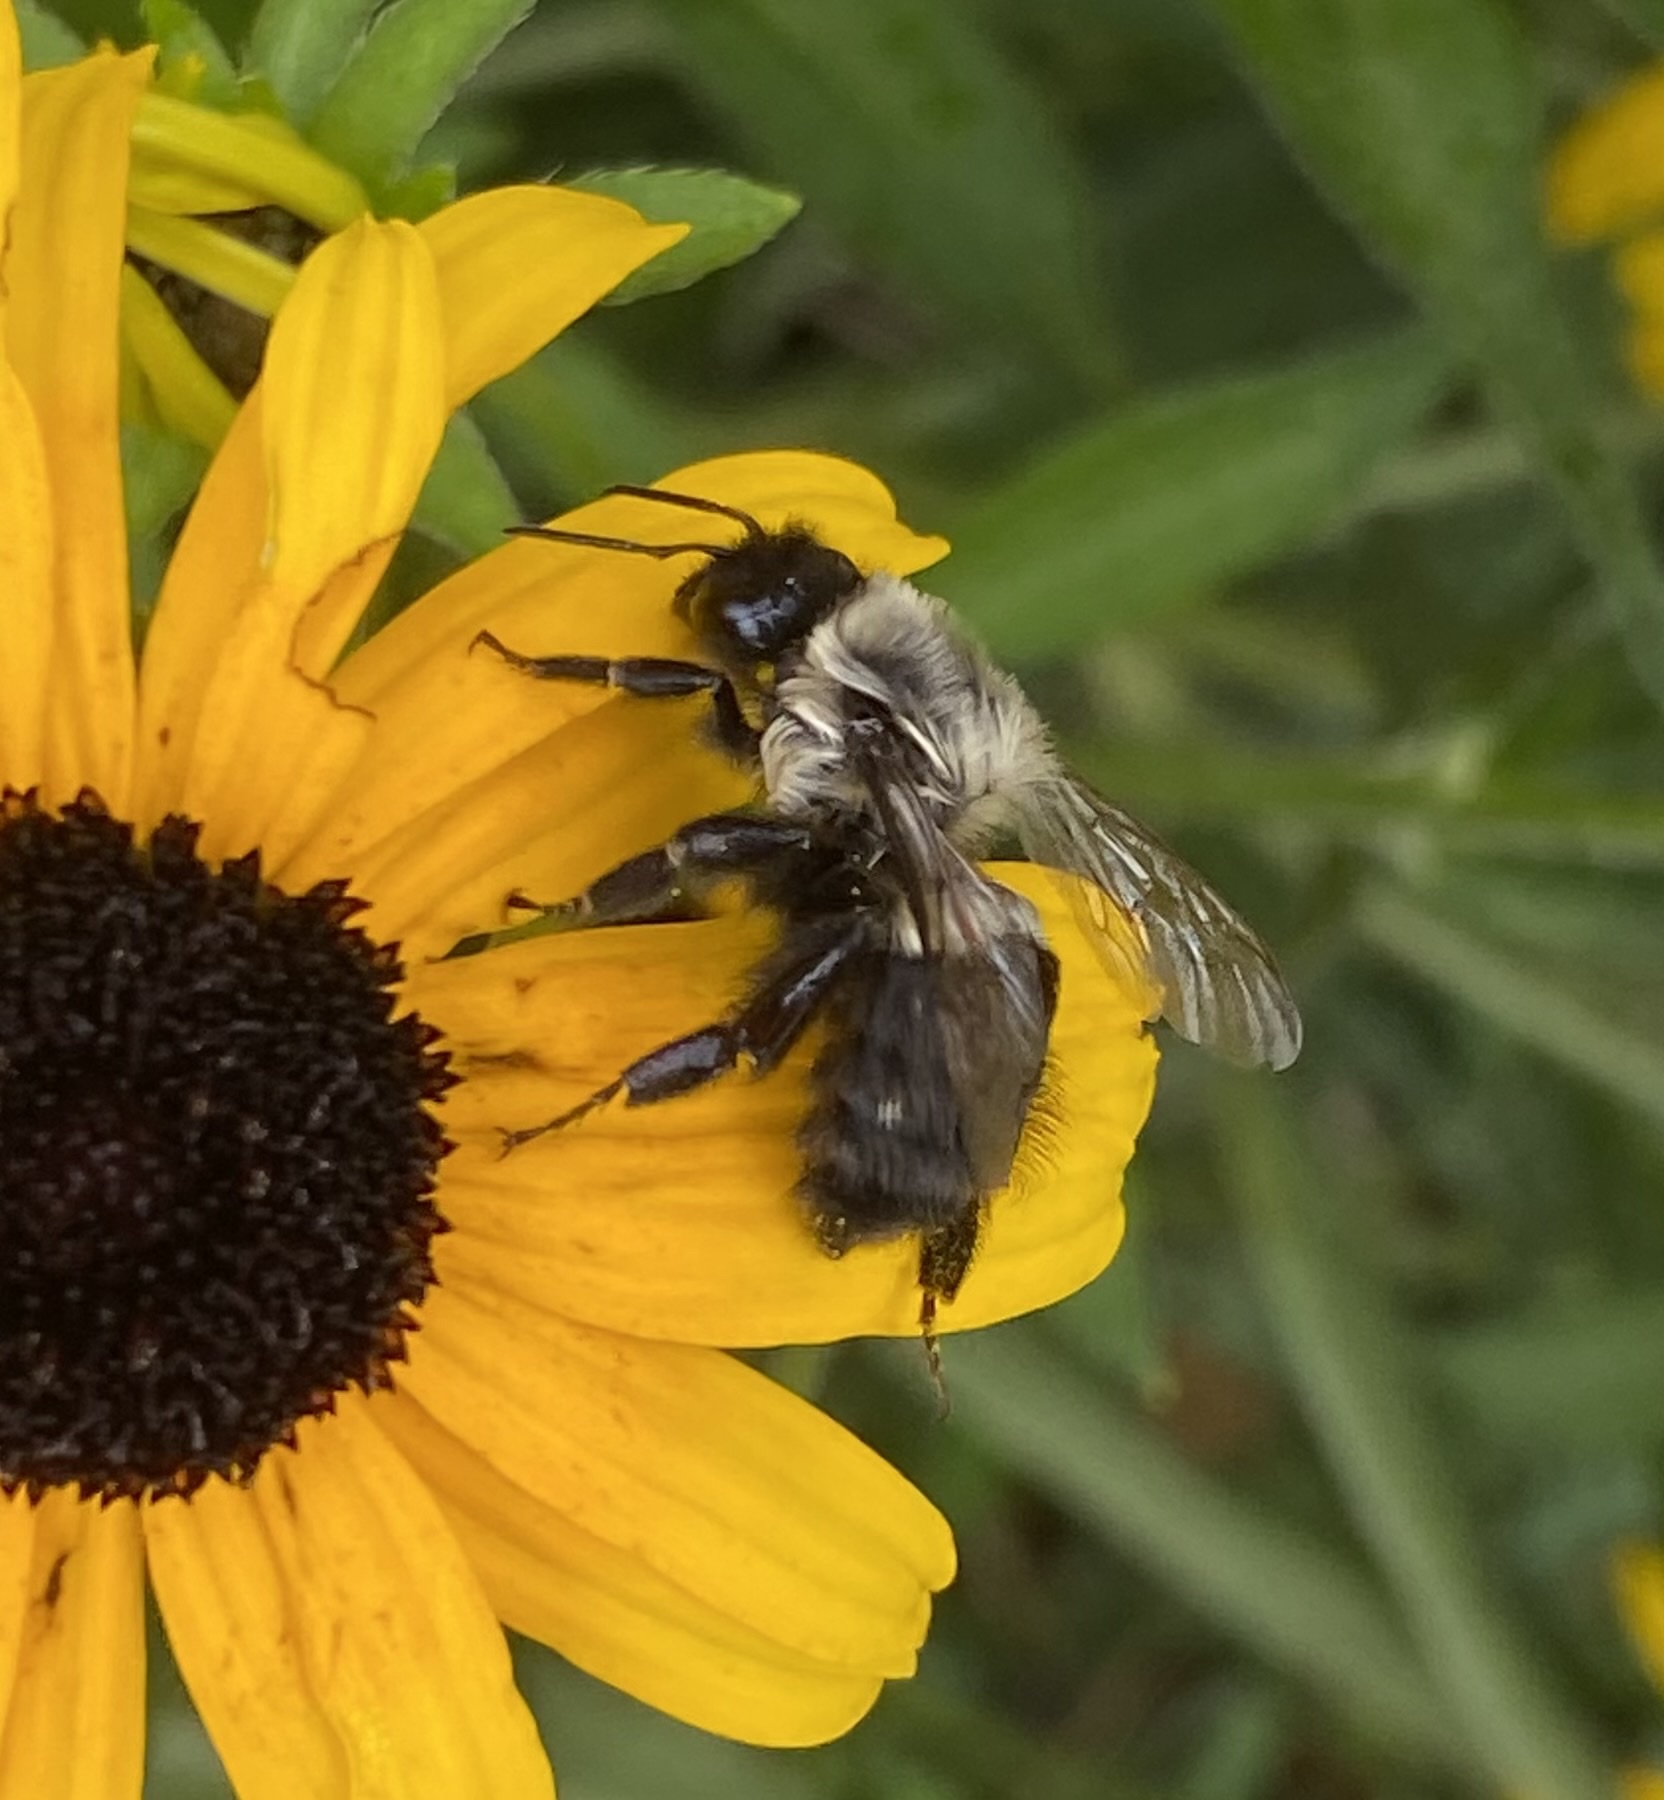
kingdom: Animalia
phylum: Arthropoda
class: Insecta
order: Hymenoptera
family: Apidae
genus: Bombus
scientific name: Bombus impatiens
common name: Common eastern bumble bee
